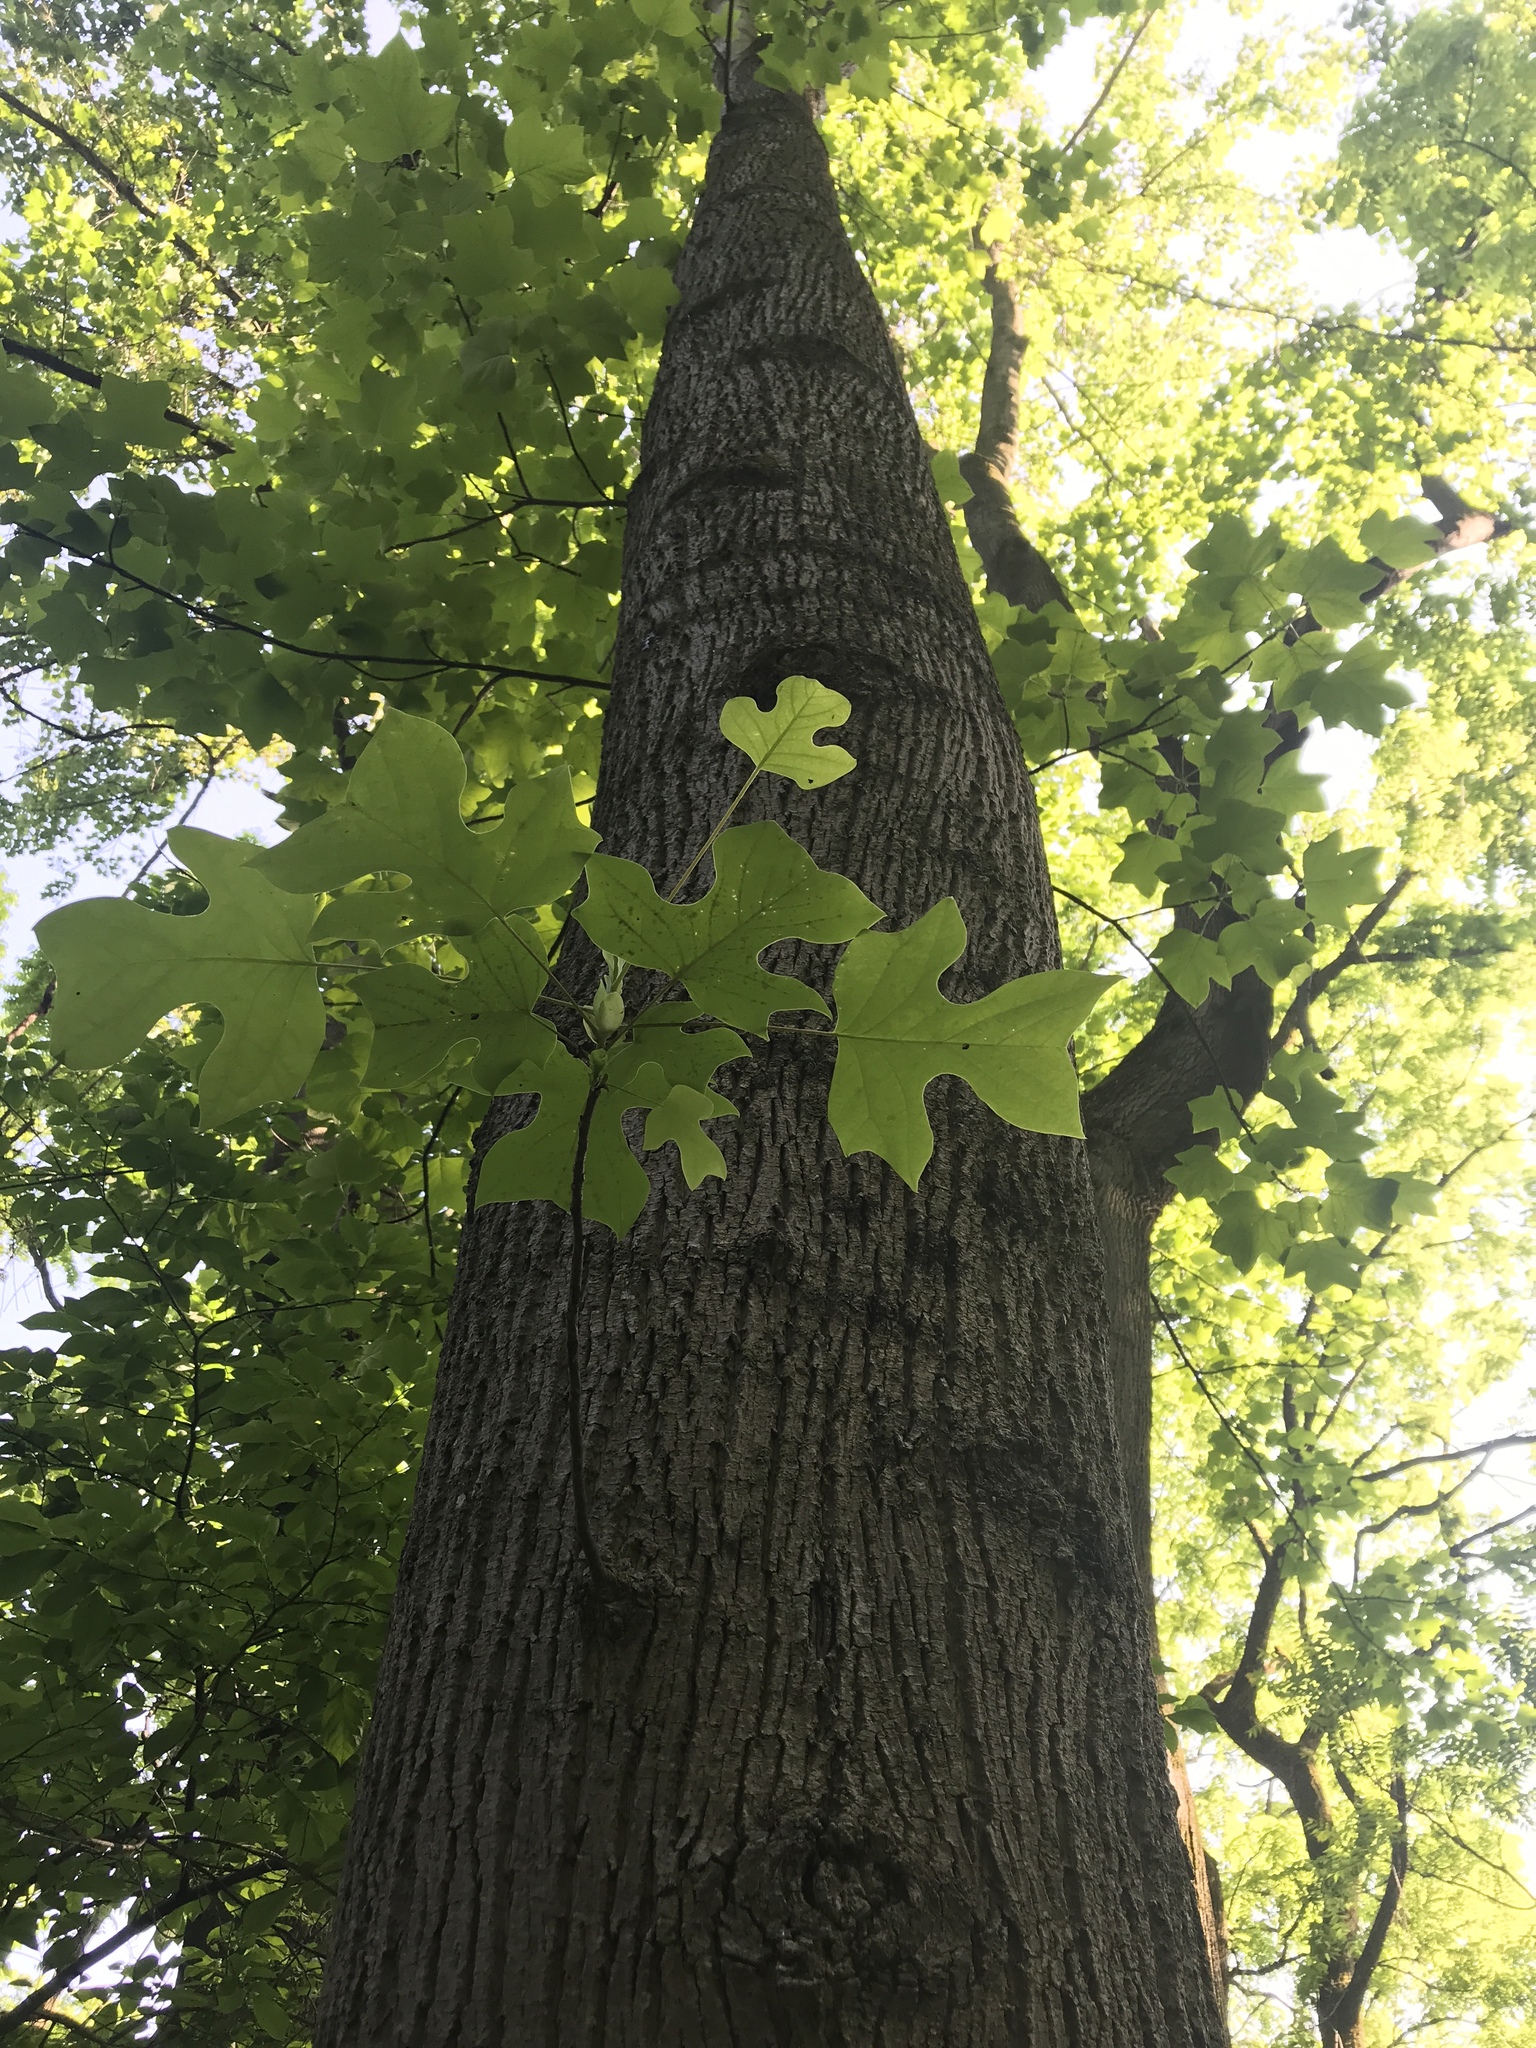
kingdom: Plantae
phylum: Tracheophyta
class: Magnoliopsida
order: Magnoliales
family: Magnoliaceae
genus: Liriodendron
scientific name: Liriodendron tulipifera
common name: Tulip tree
